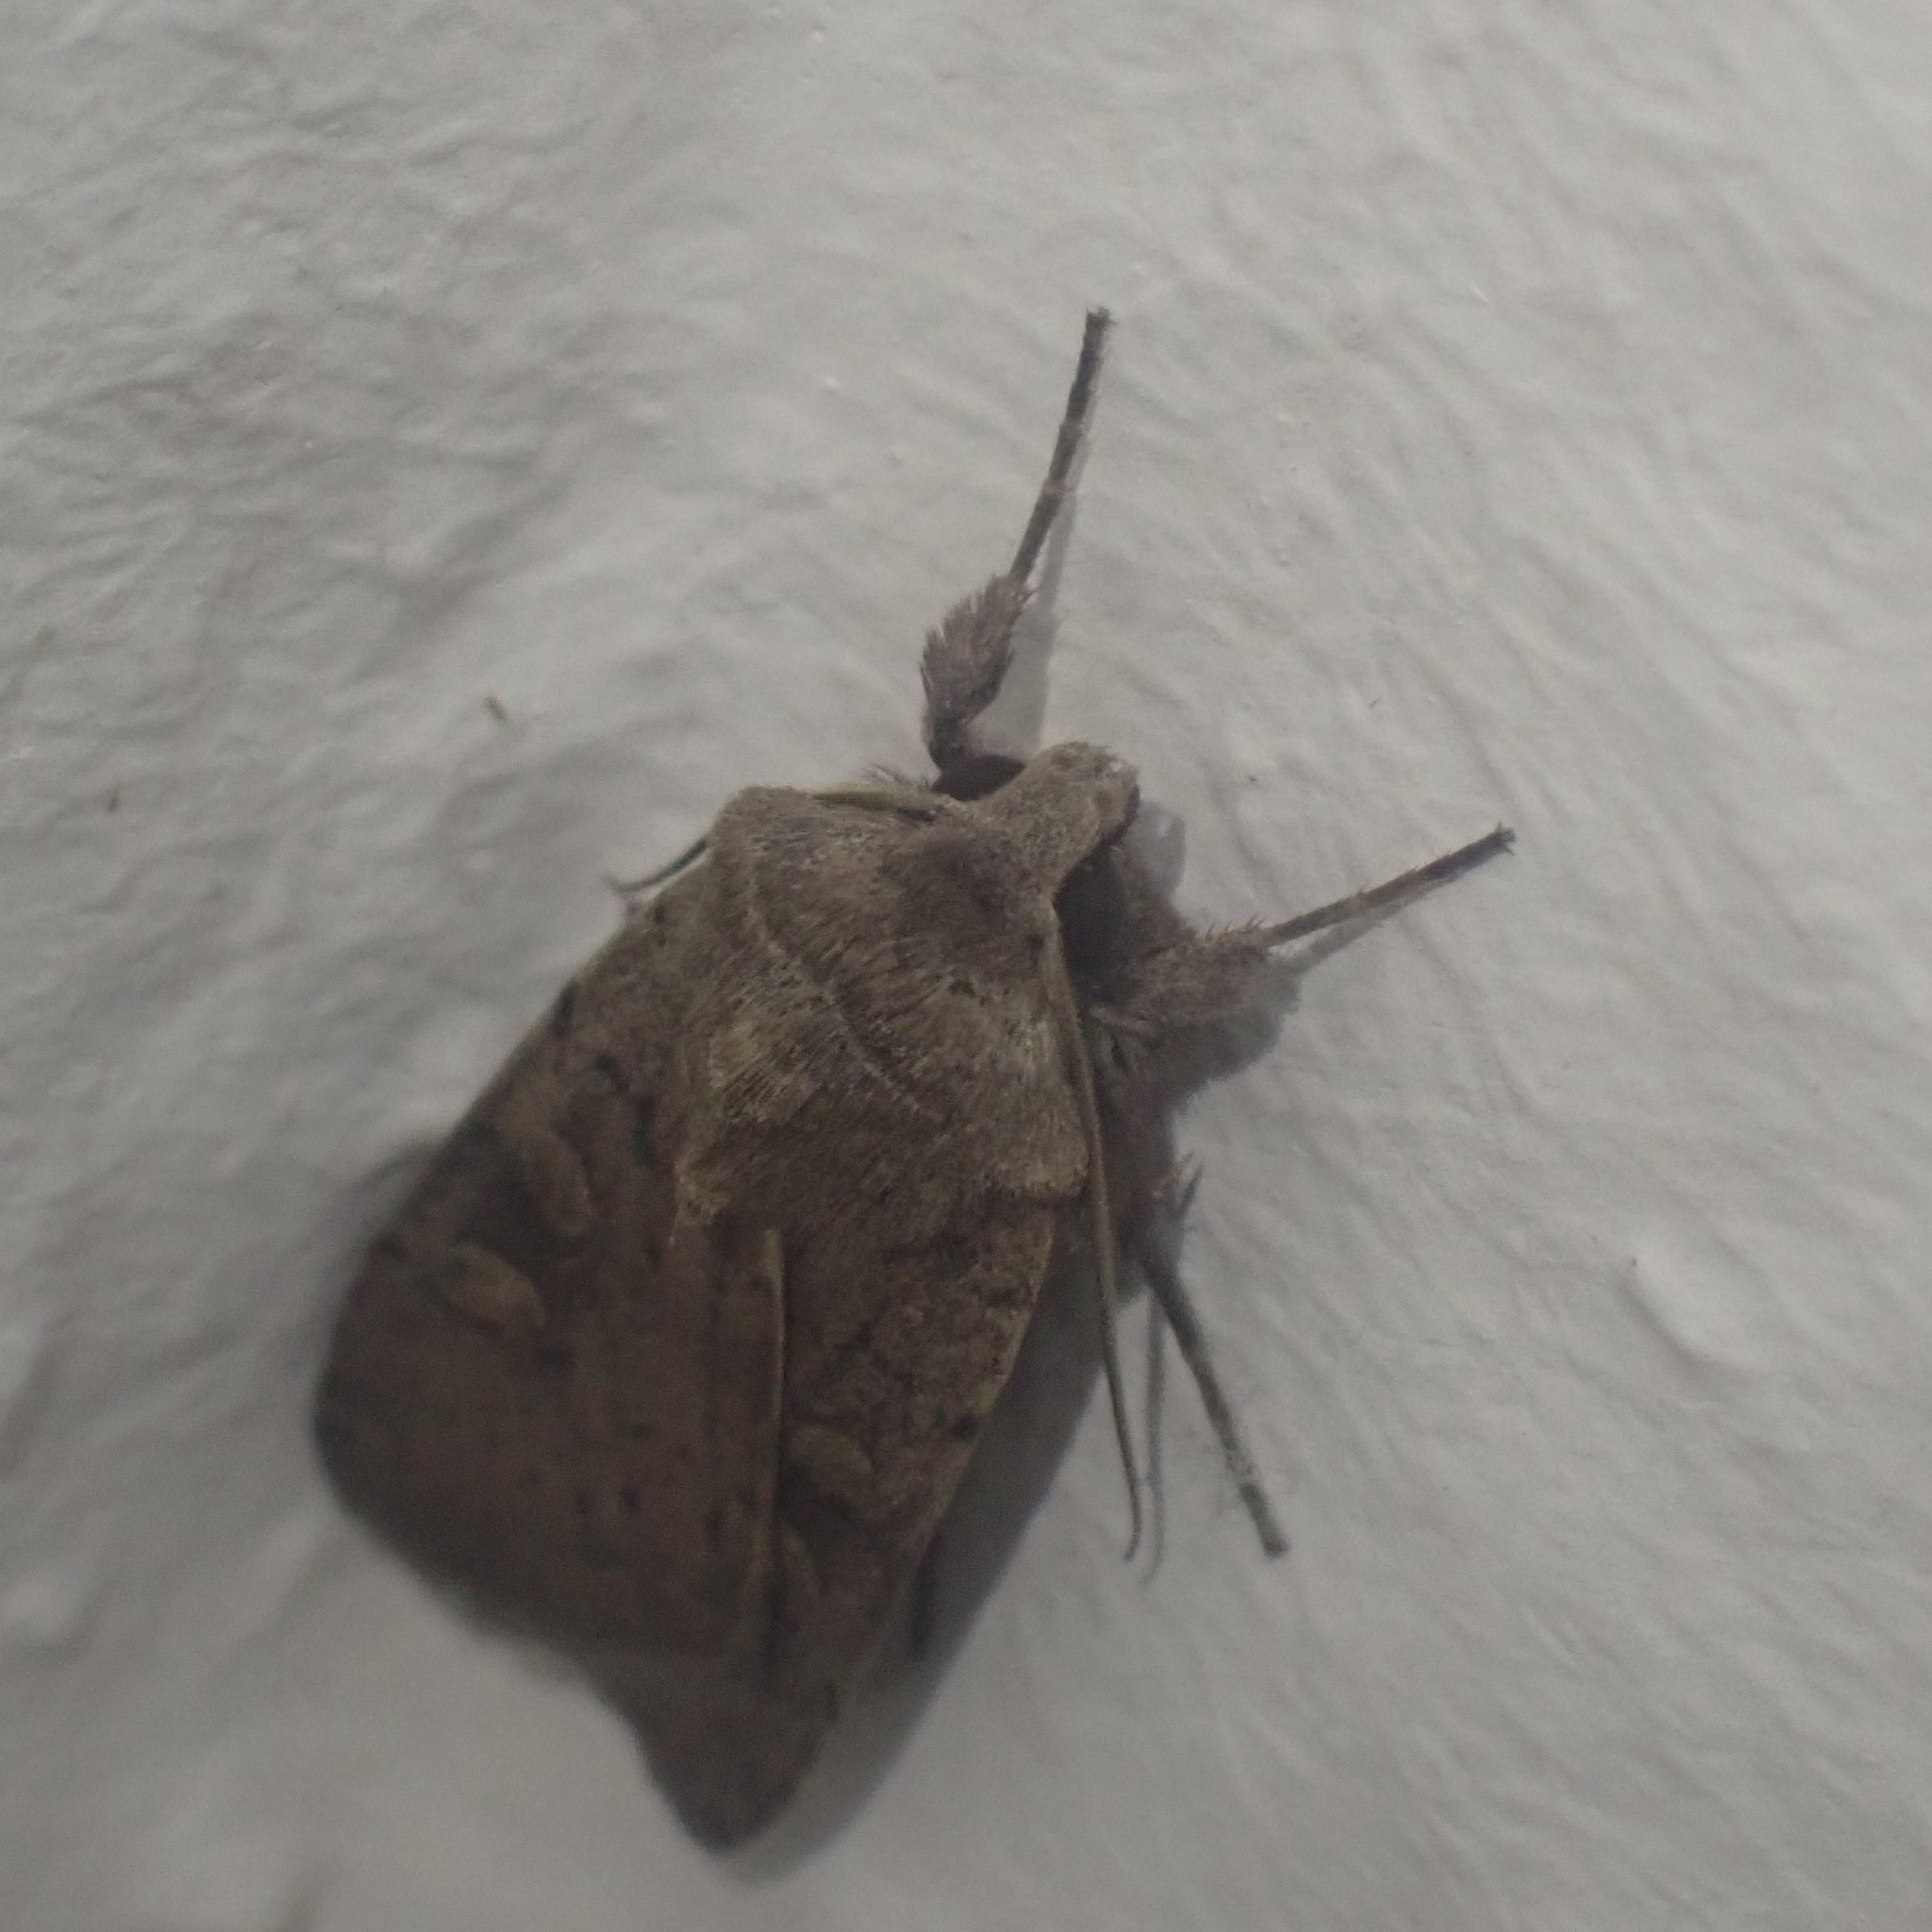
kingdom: Animalia
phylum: Arthropoda
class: Insecta
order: Lepidoptera
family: Noctuidae
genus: Xestia
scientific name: Xestia xanthographa
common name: Square-spot rustic
